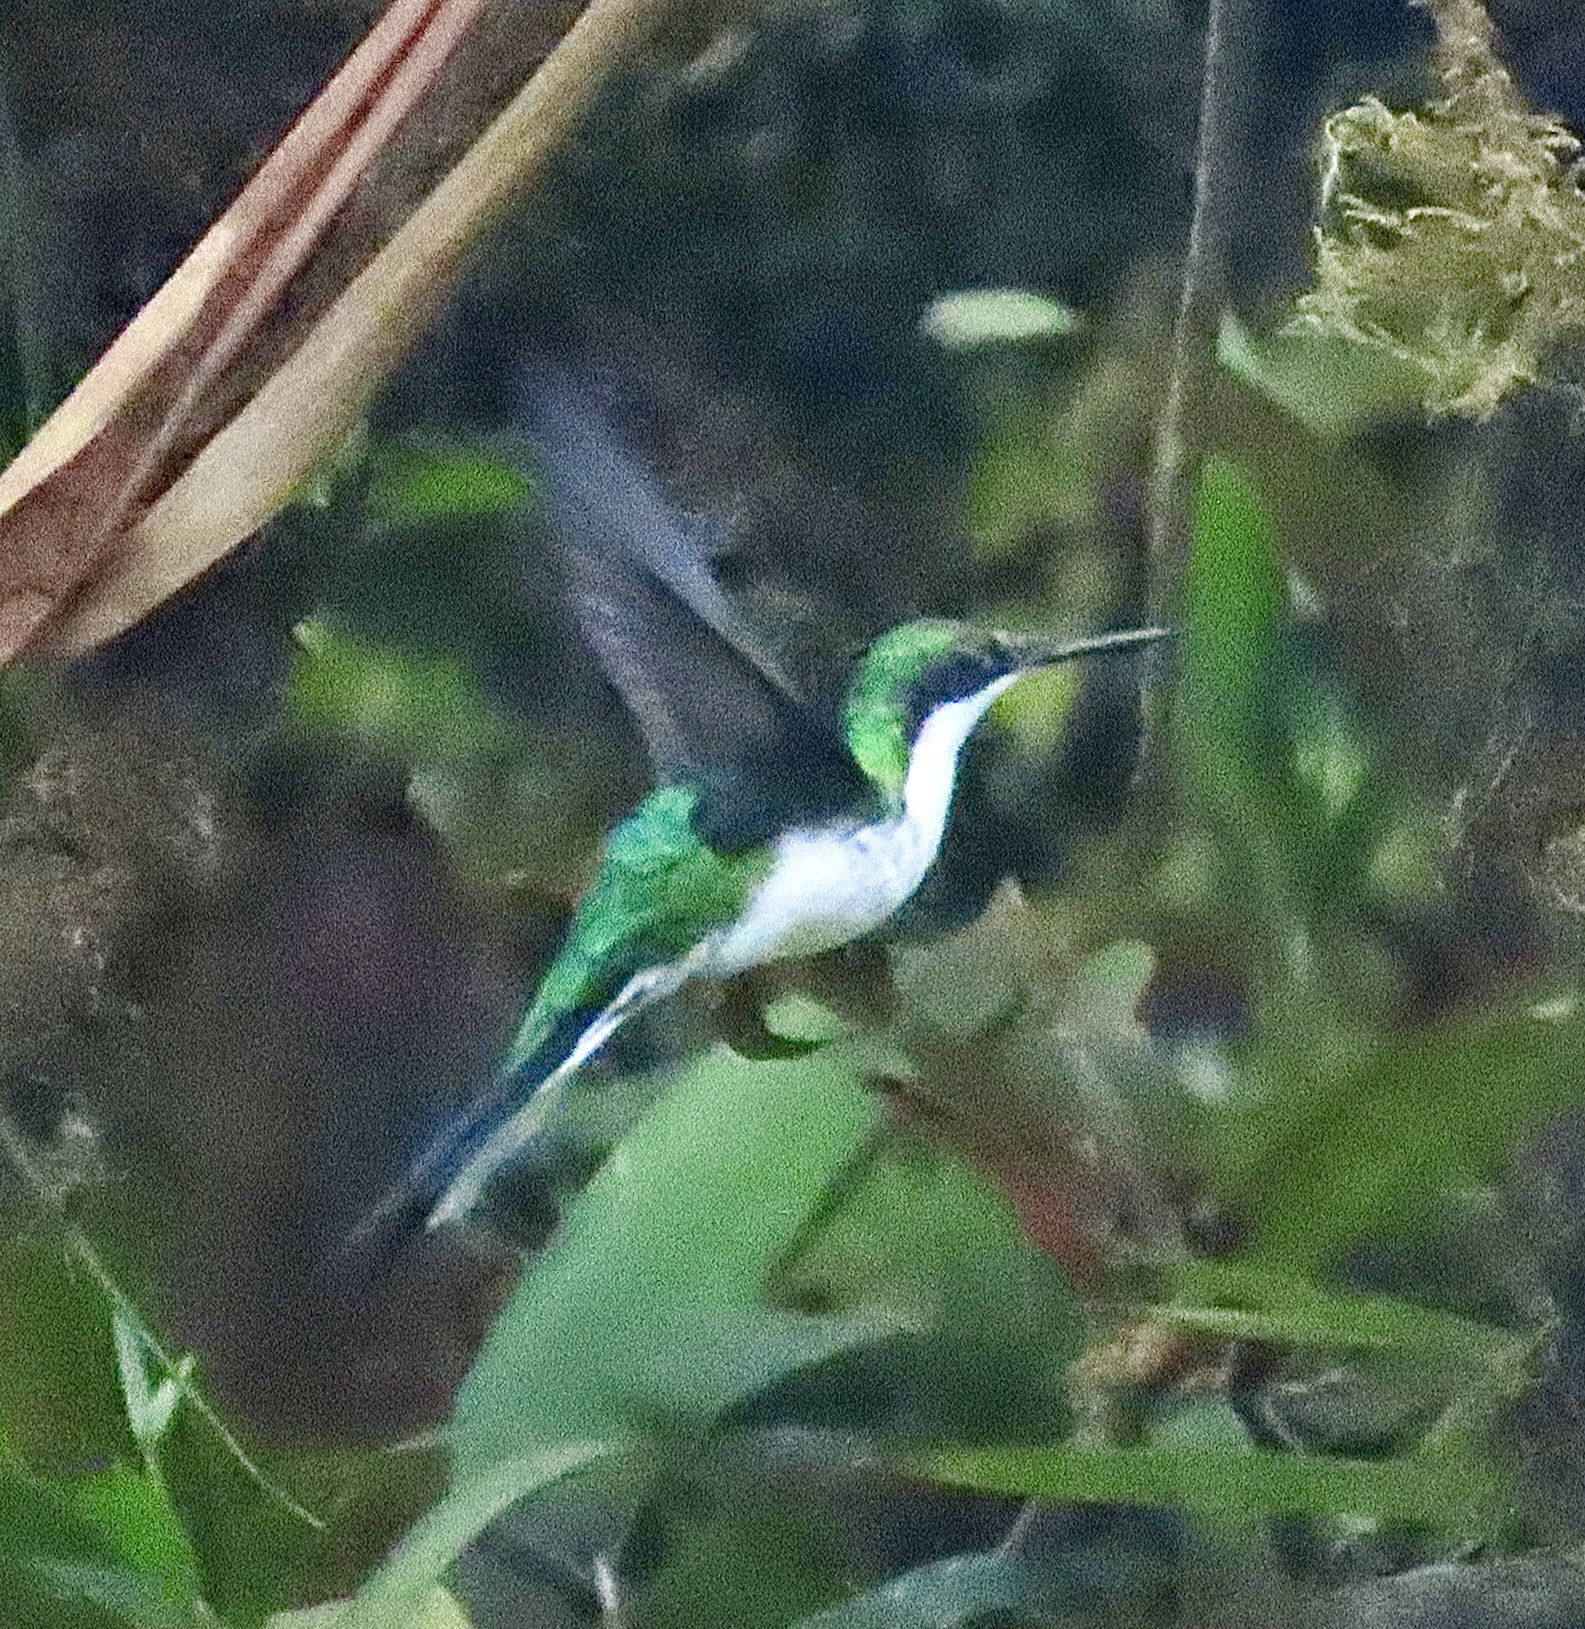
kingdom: Animalia
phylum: Chordata
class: Aves
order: Apodiformes
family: Trochilidae
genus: Heliothryx
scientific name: Heliothryx barroti
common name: Purple-crowned fairy
